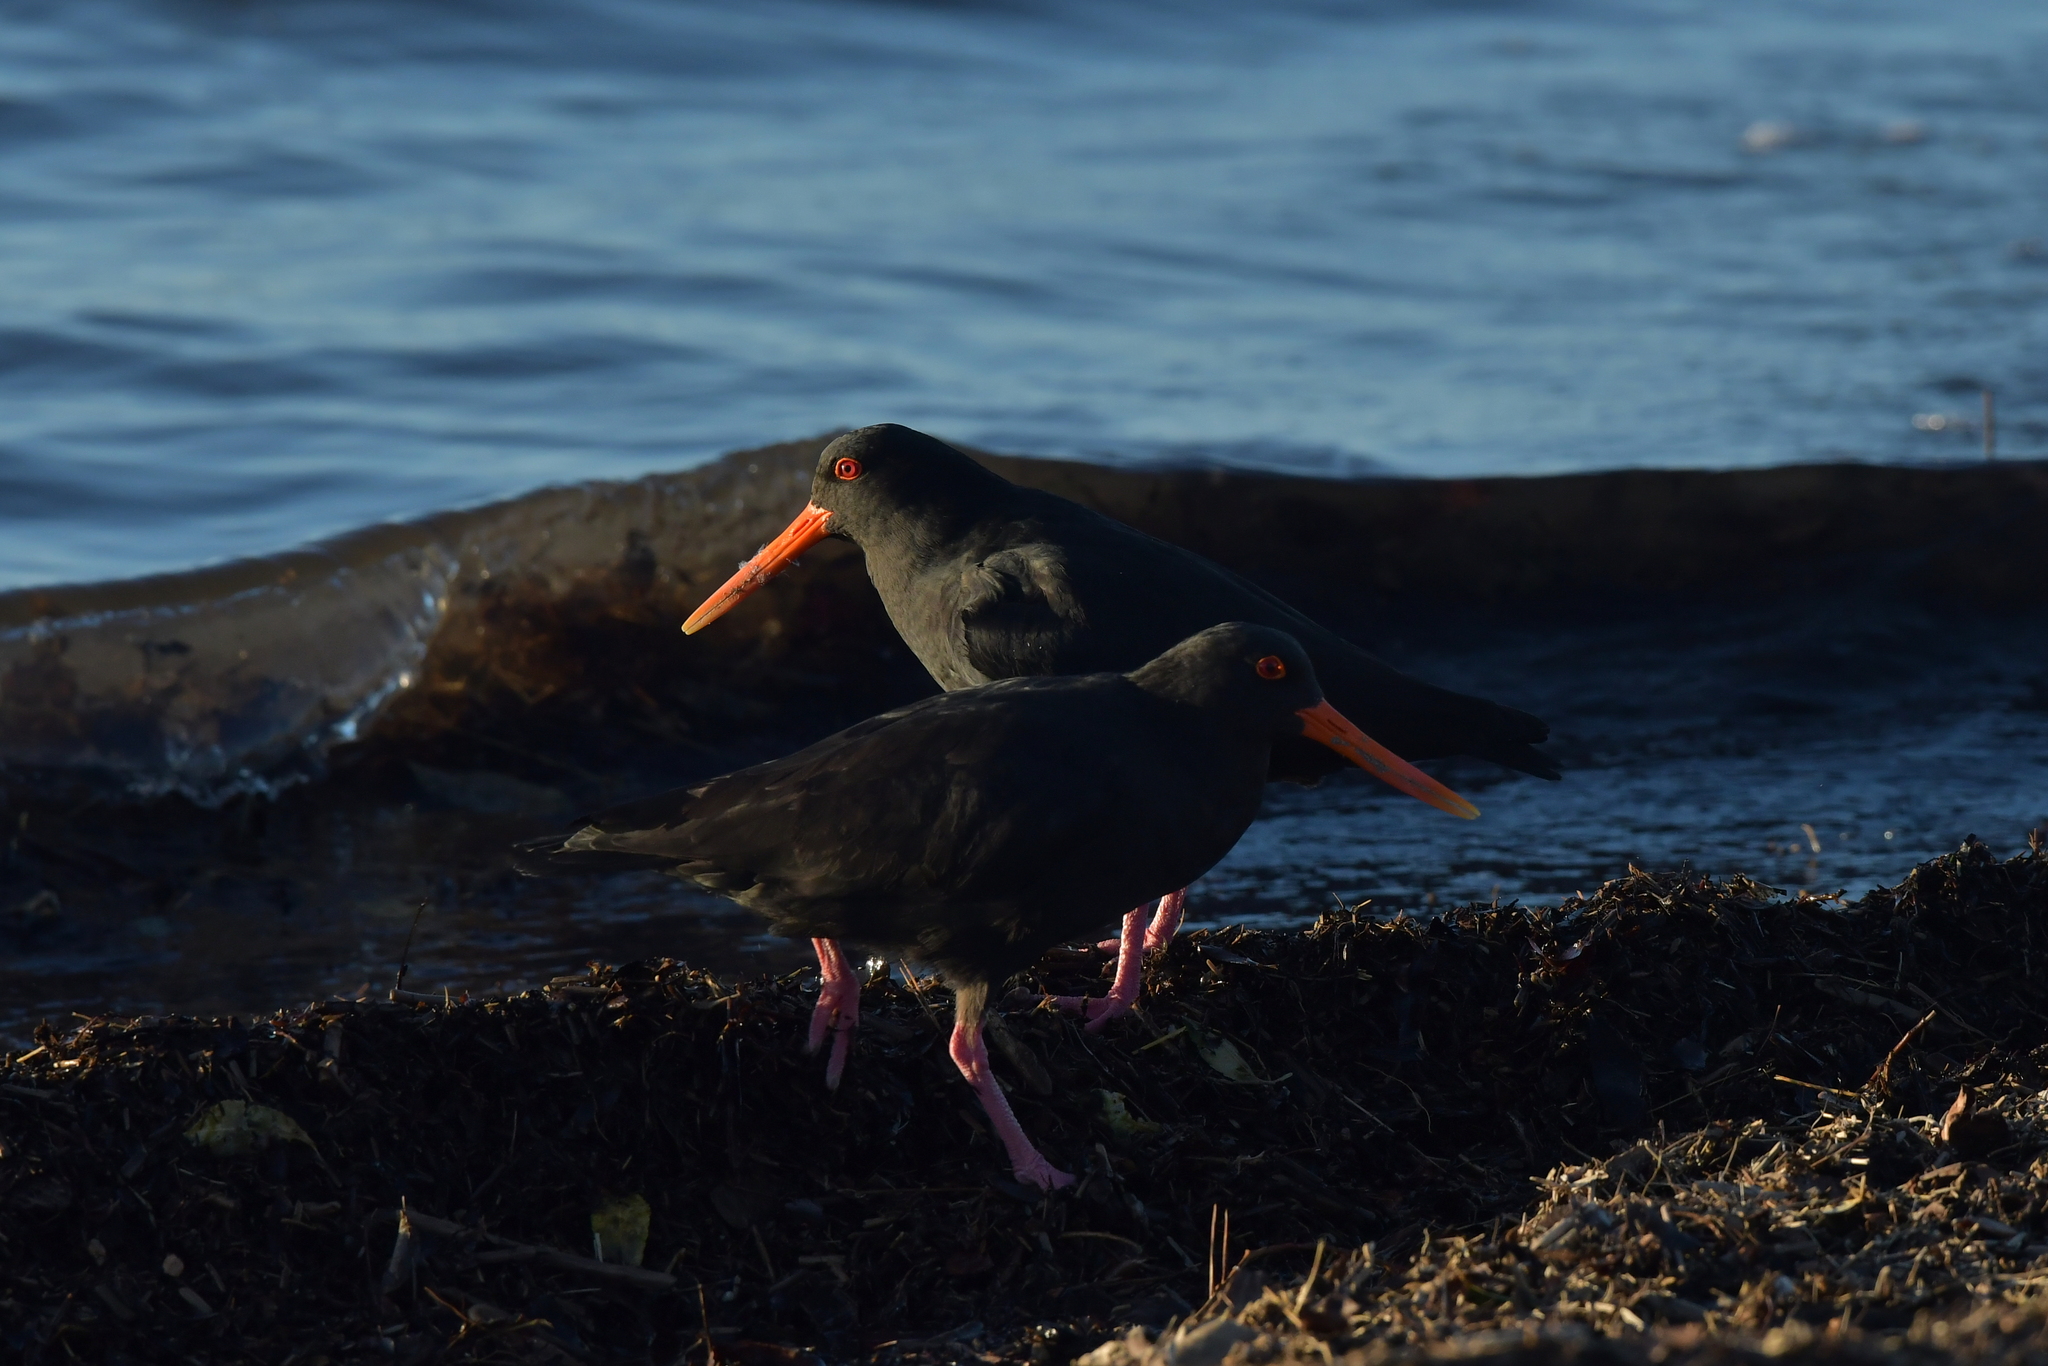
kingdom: Animalia
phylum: Chordata
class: Aves
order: Charadriiformes
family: Haematopodidae
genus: Haematopus
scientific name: Haematopus unicolor
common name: Variable oystercatcher
